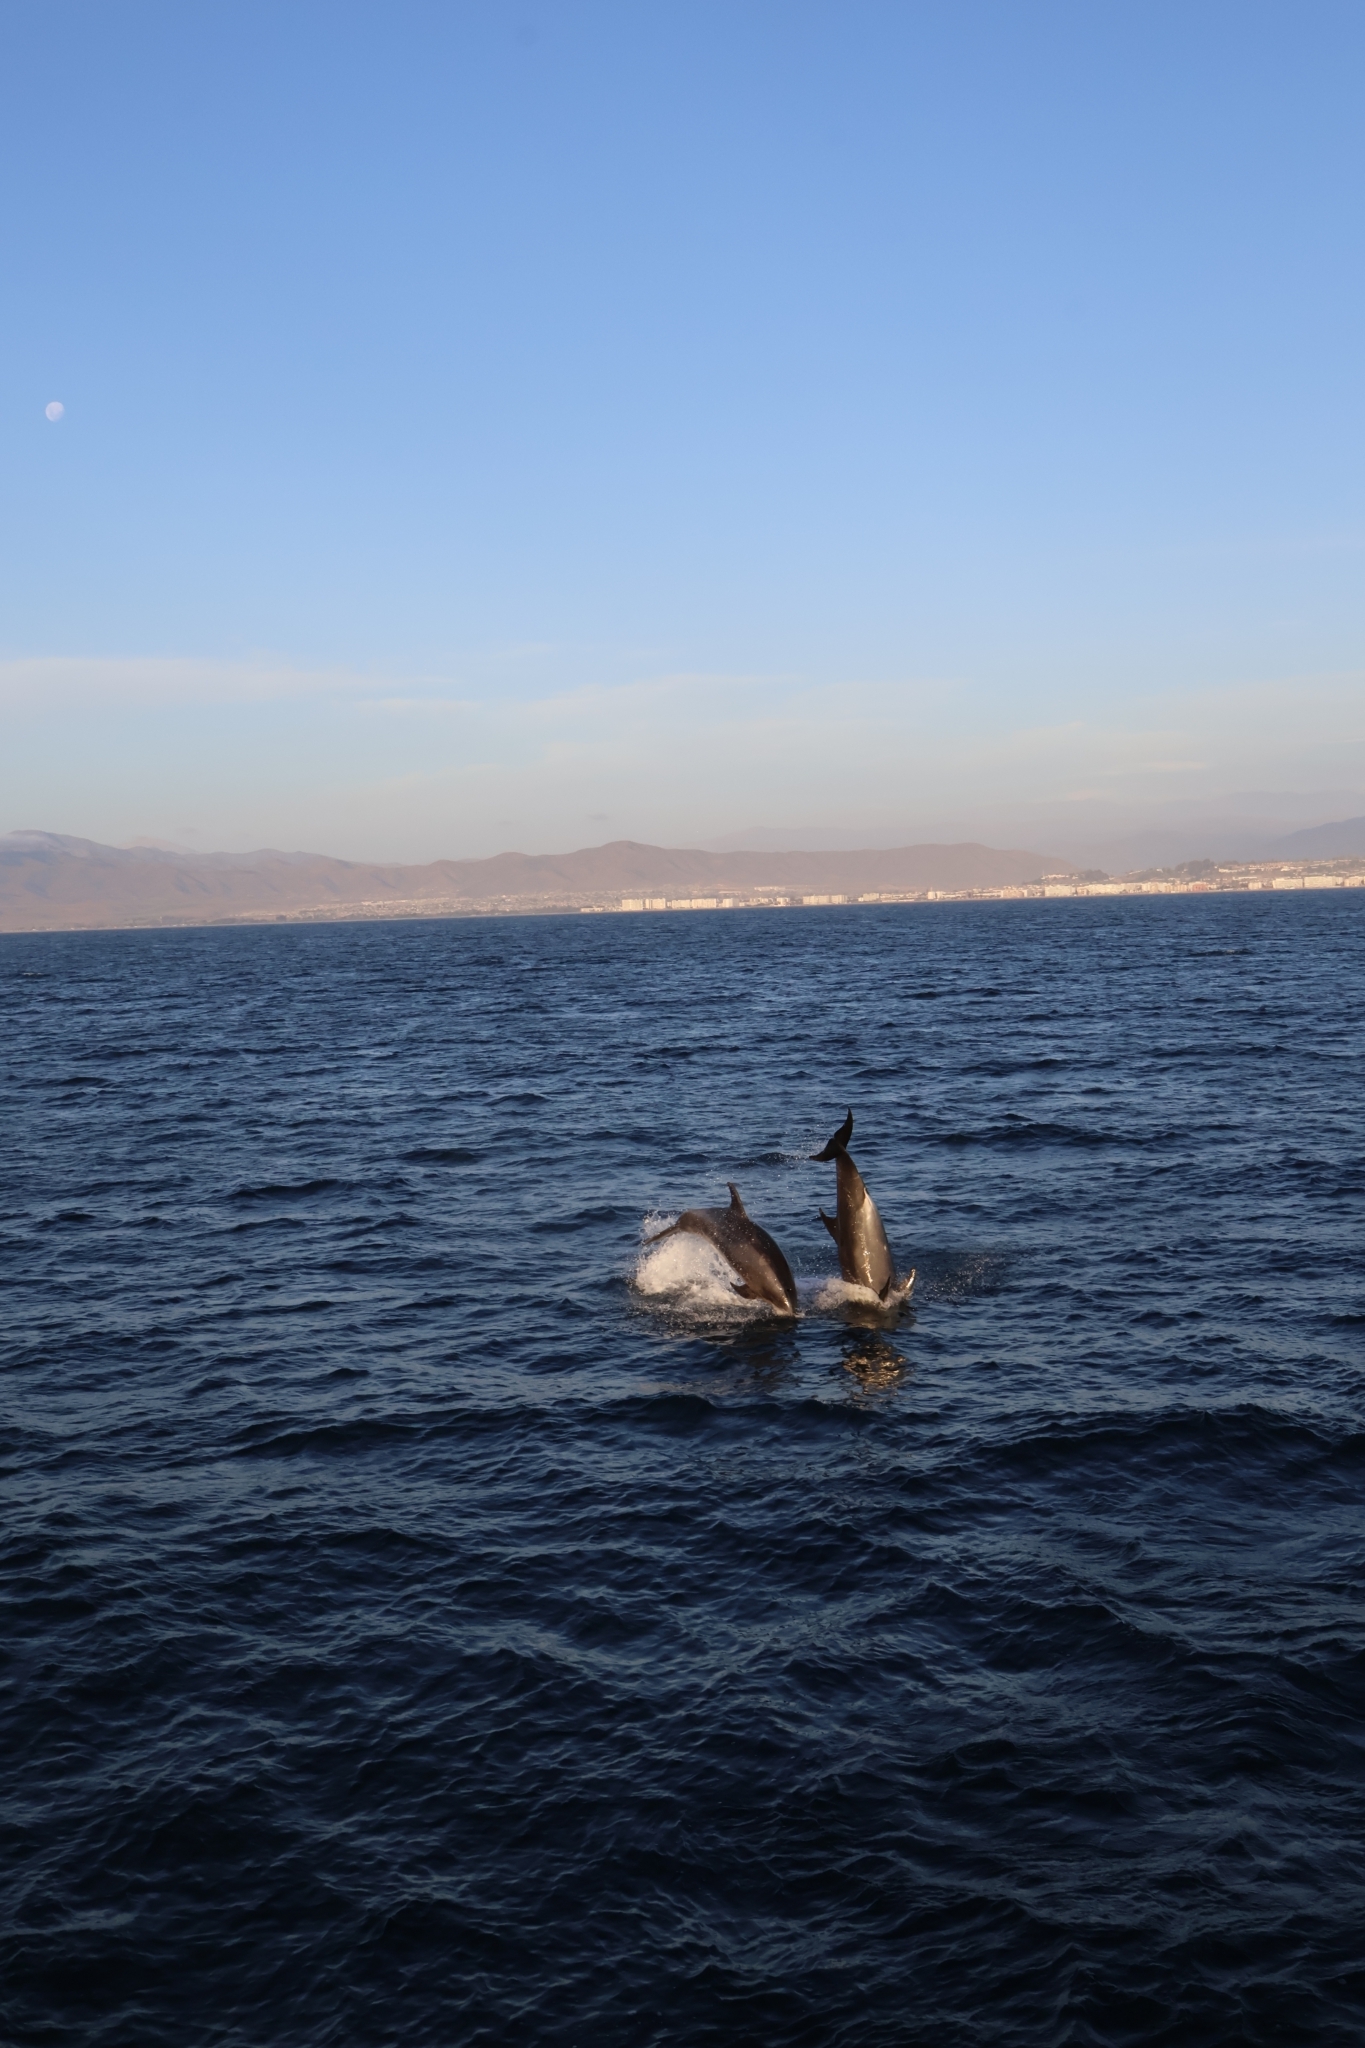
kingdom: Animalia
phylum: Chordata
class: Mammalia
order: Cetacea
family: Delphinidae
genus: Tursiops
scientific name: Tursiops truncatus
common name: Bottlenose dolphin
